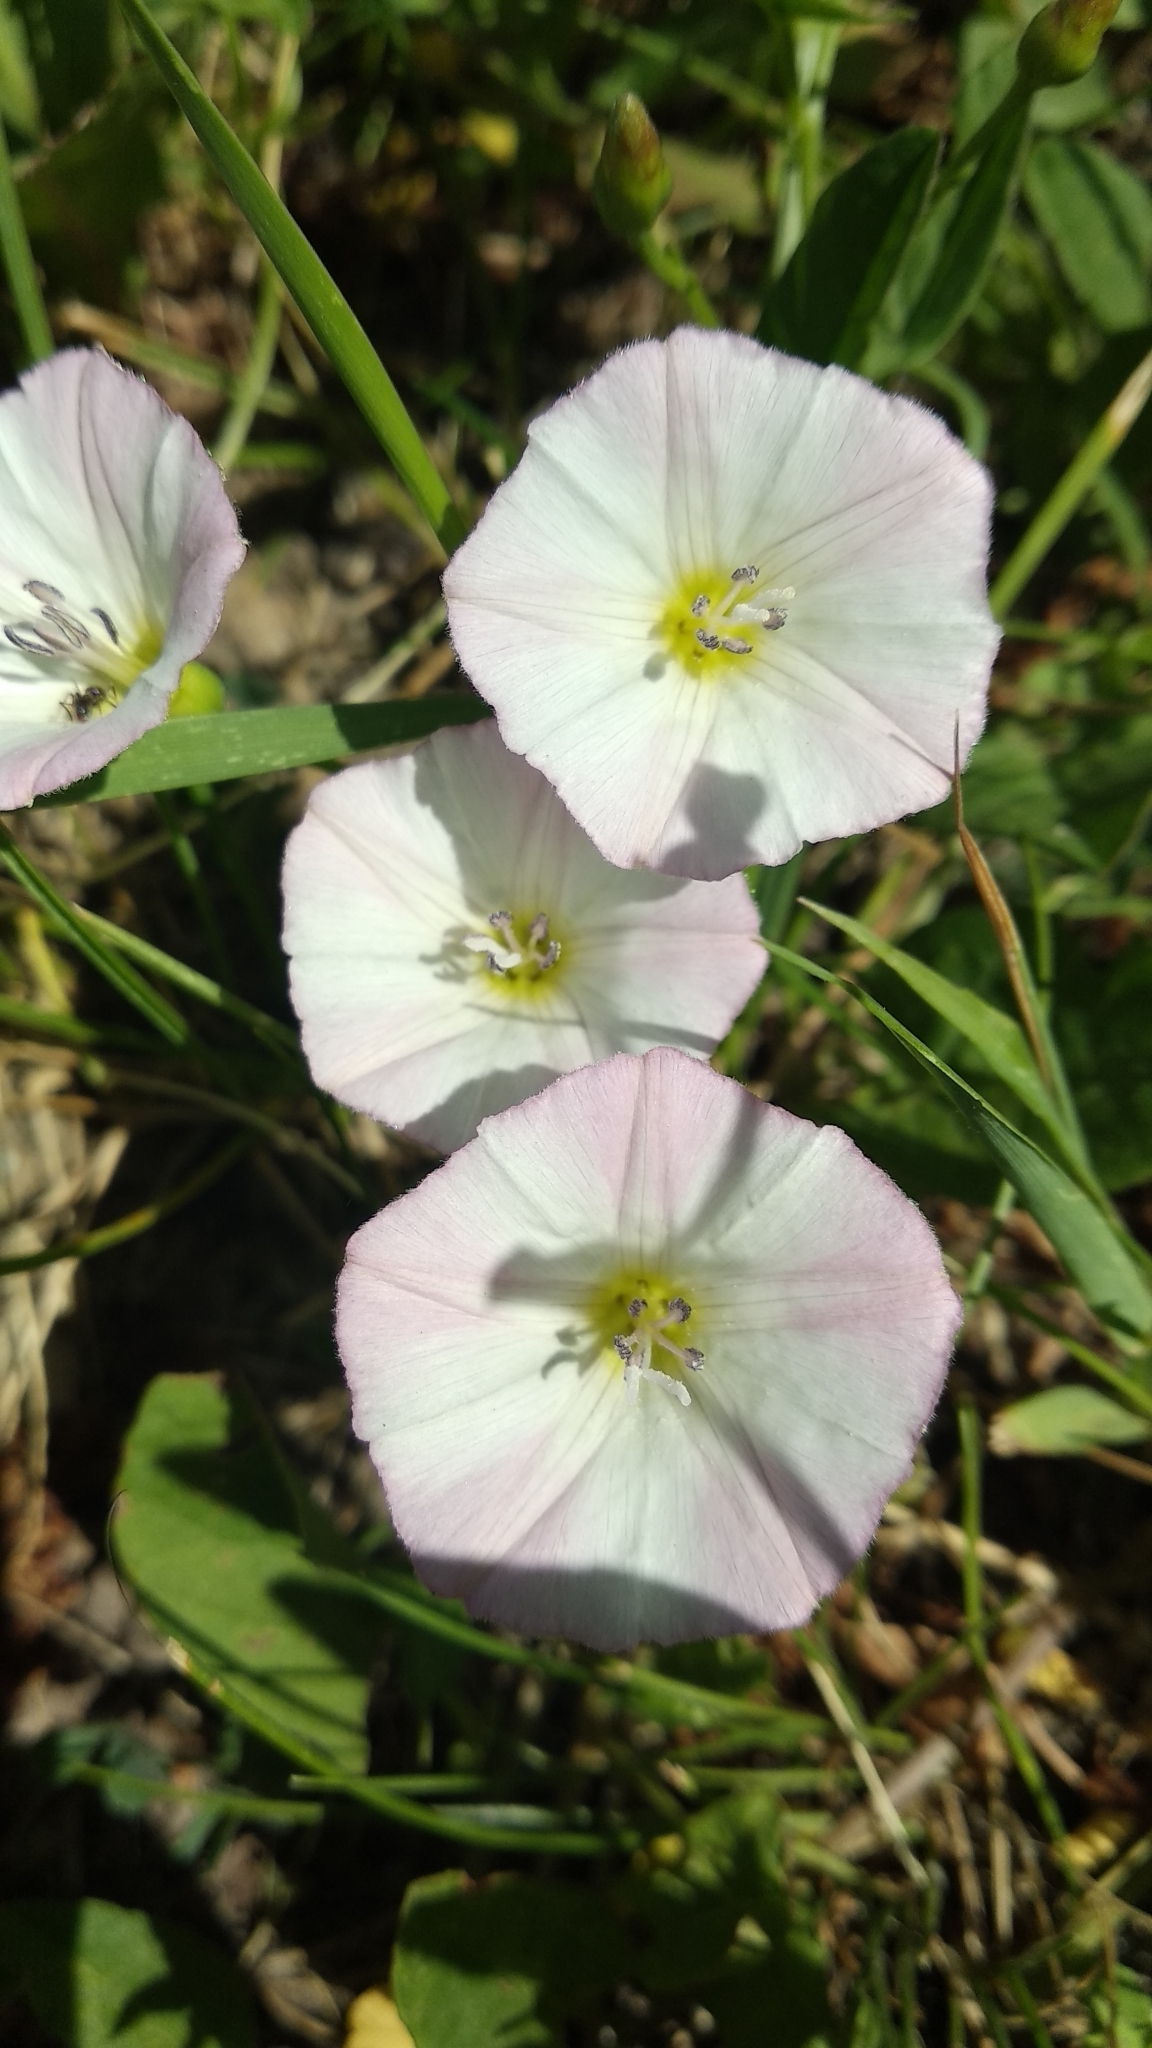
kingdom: Plantae
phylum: Tracheophyta
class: Magnoliopsida
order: Solanales
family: Convolvulaceae
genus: Convolvulus
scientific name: Convolvulus arvensis
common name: Field bindweed
